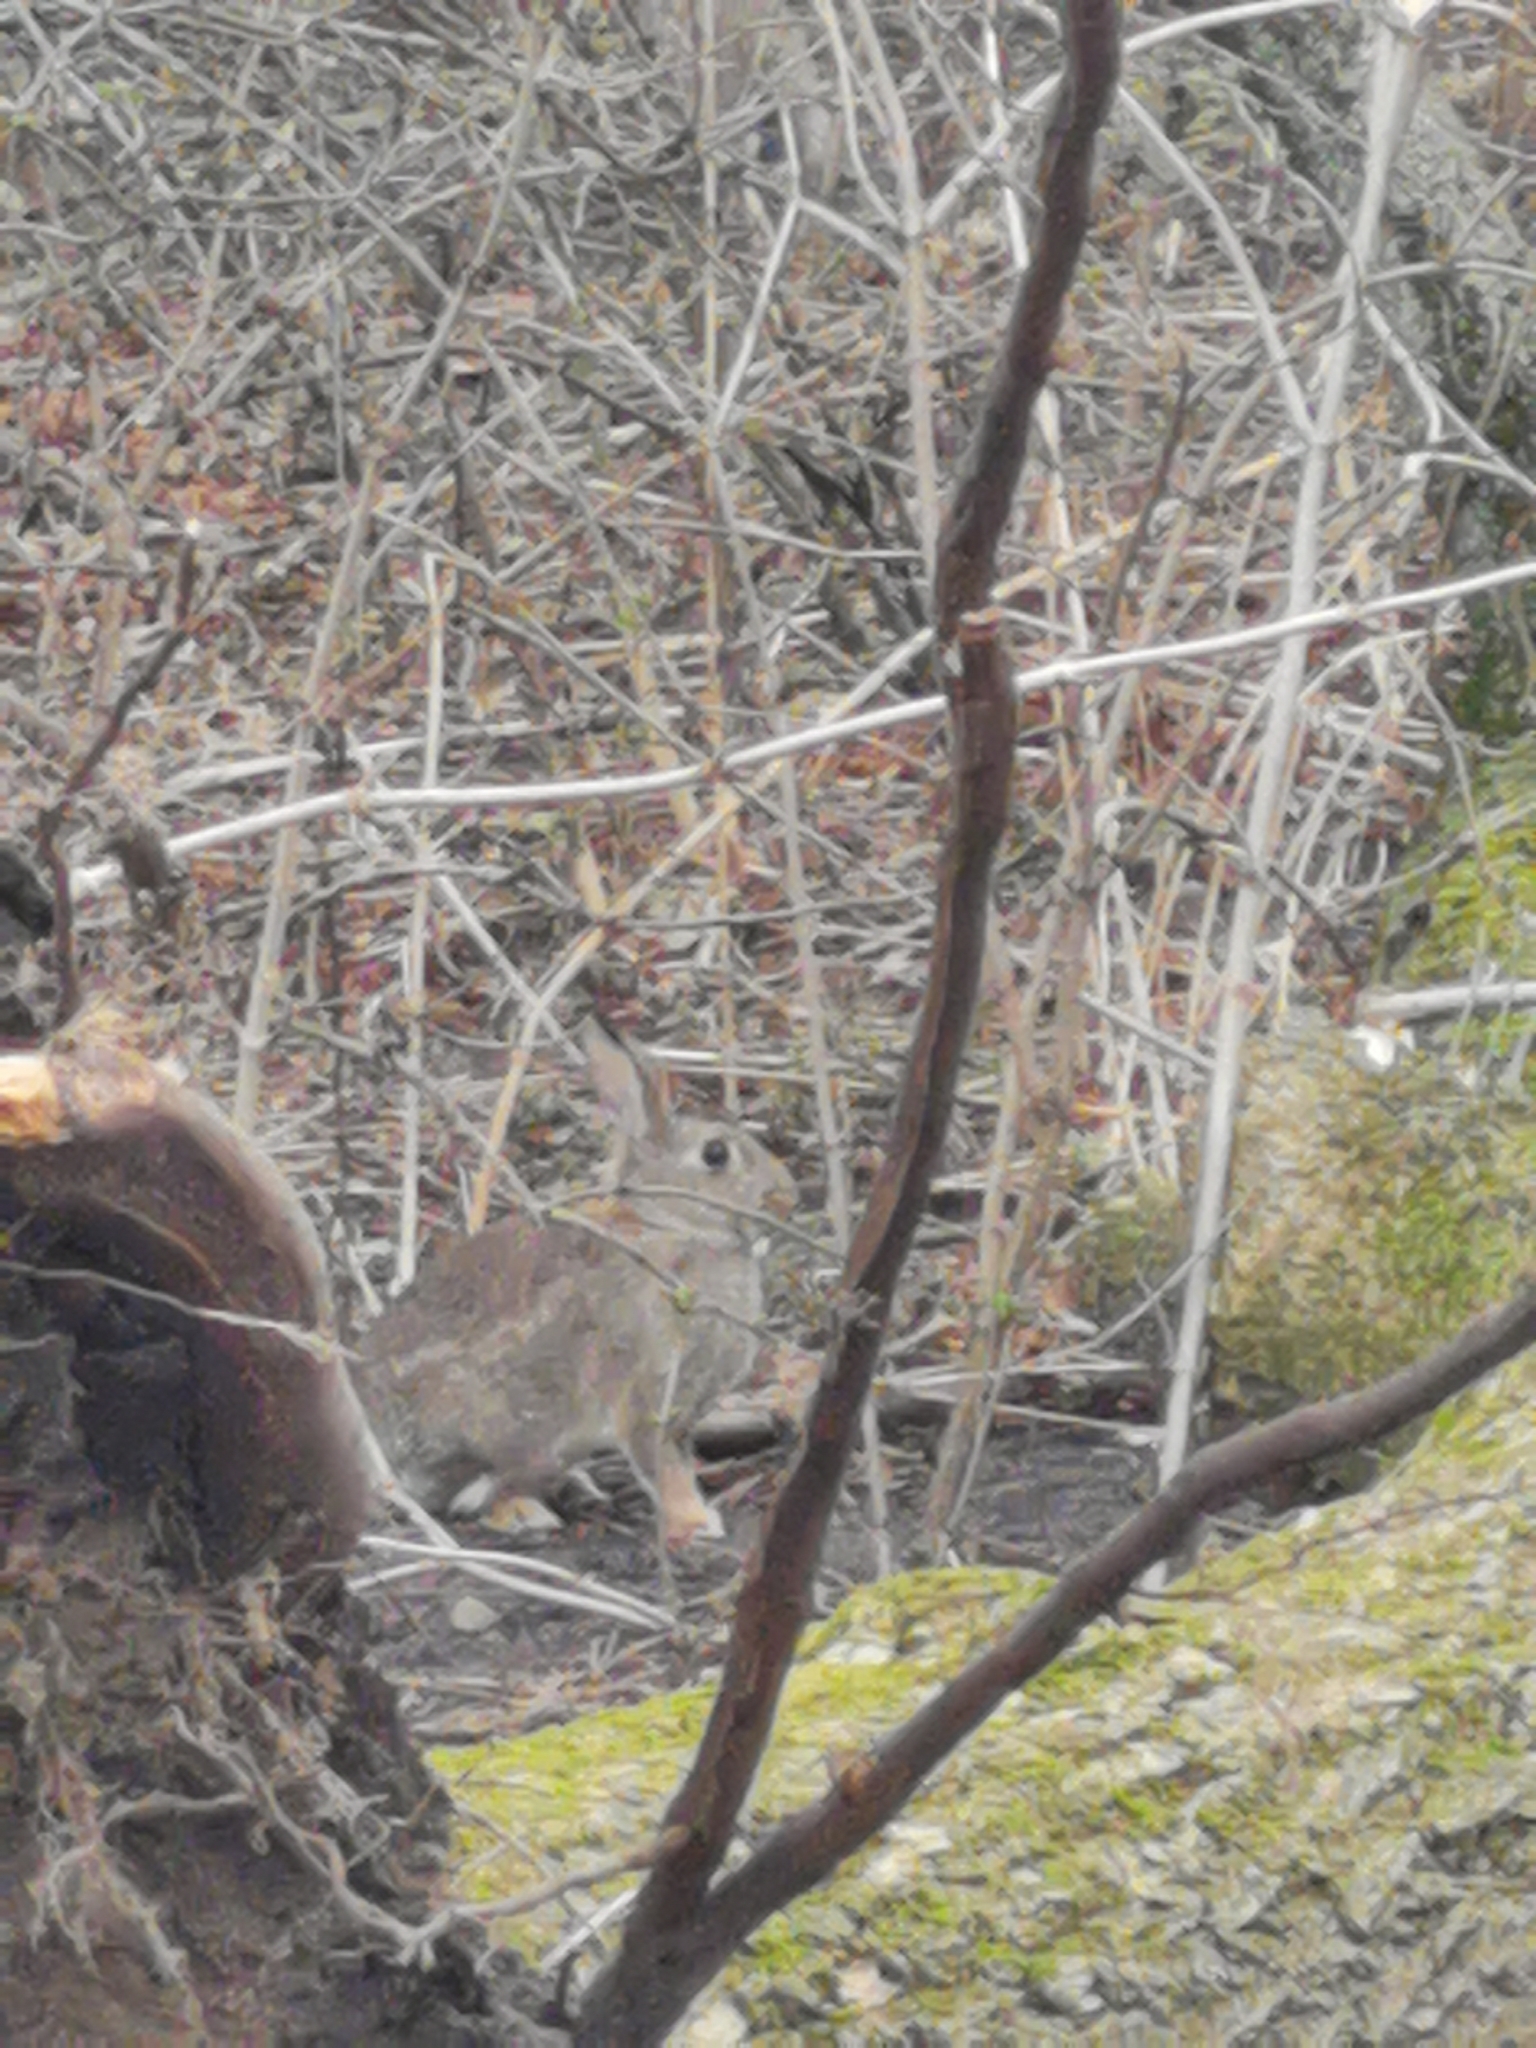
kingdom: Animalia
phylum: Chordata
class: Mammalia
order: Lagomorpha
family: Leporidae
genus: Oryctolagus
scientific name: Oryctolagus cuniculus
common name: European rabbit
